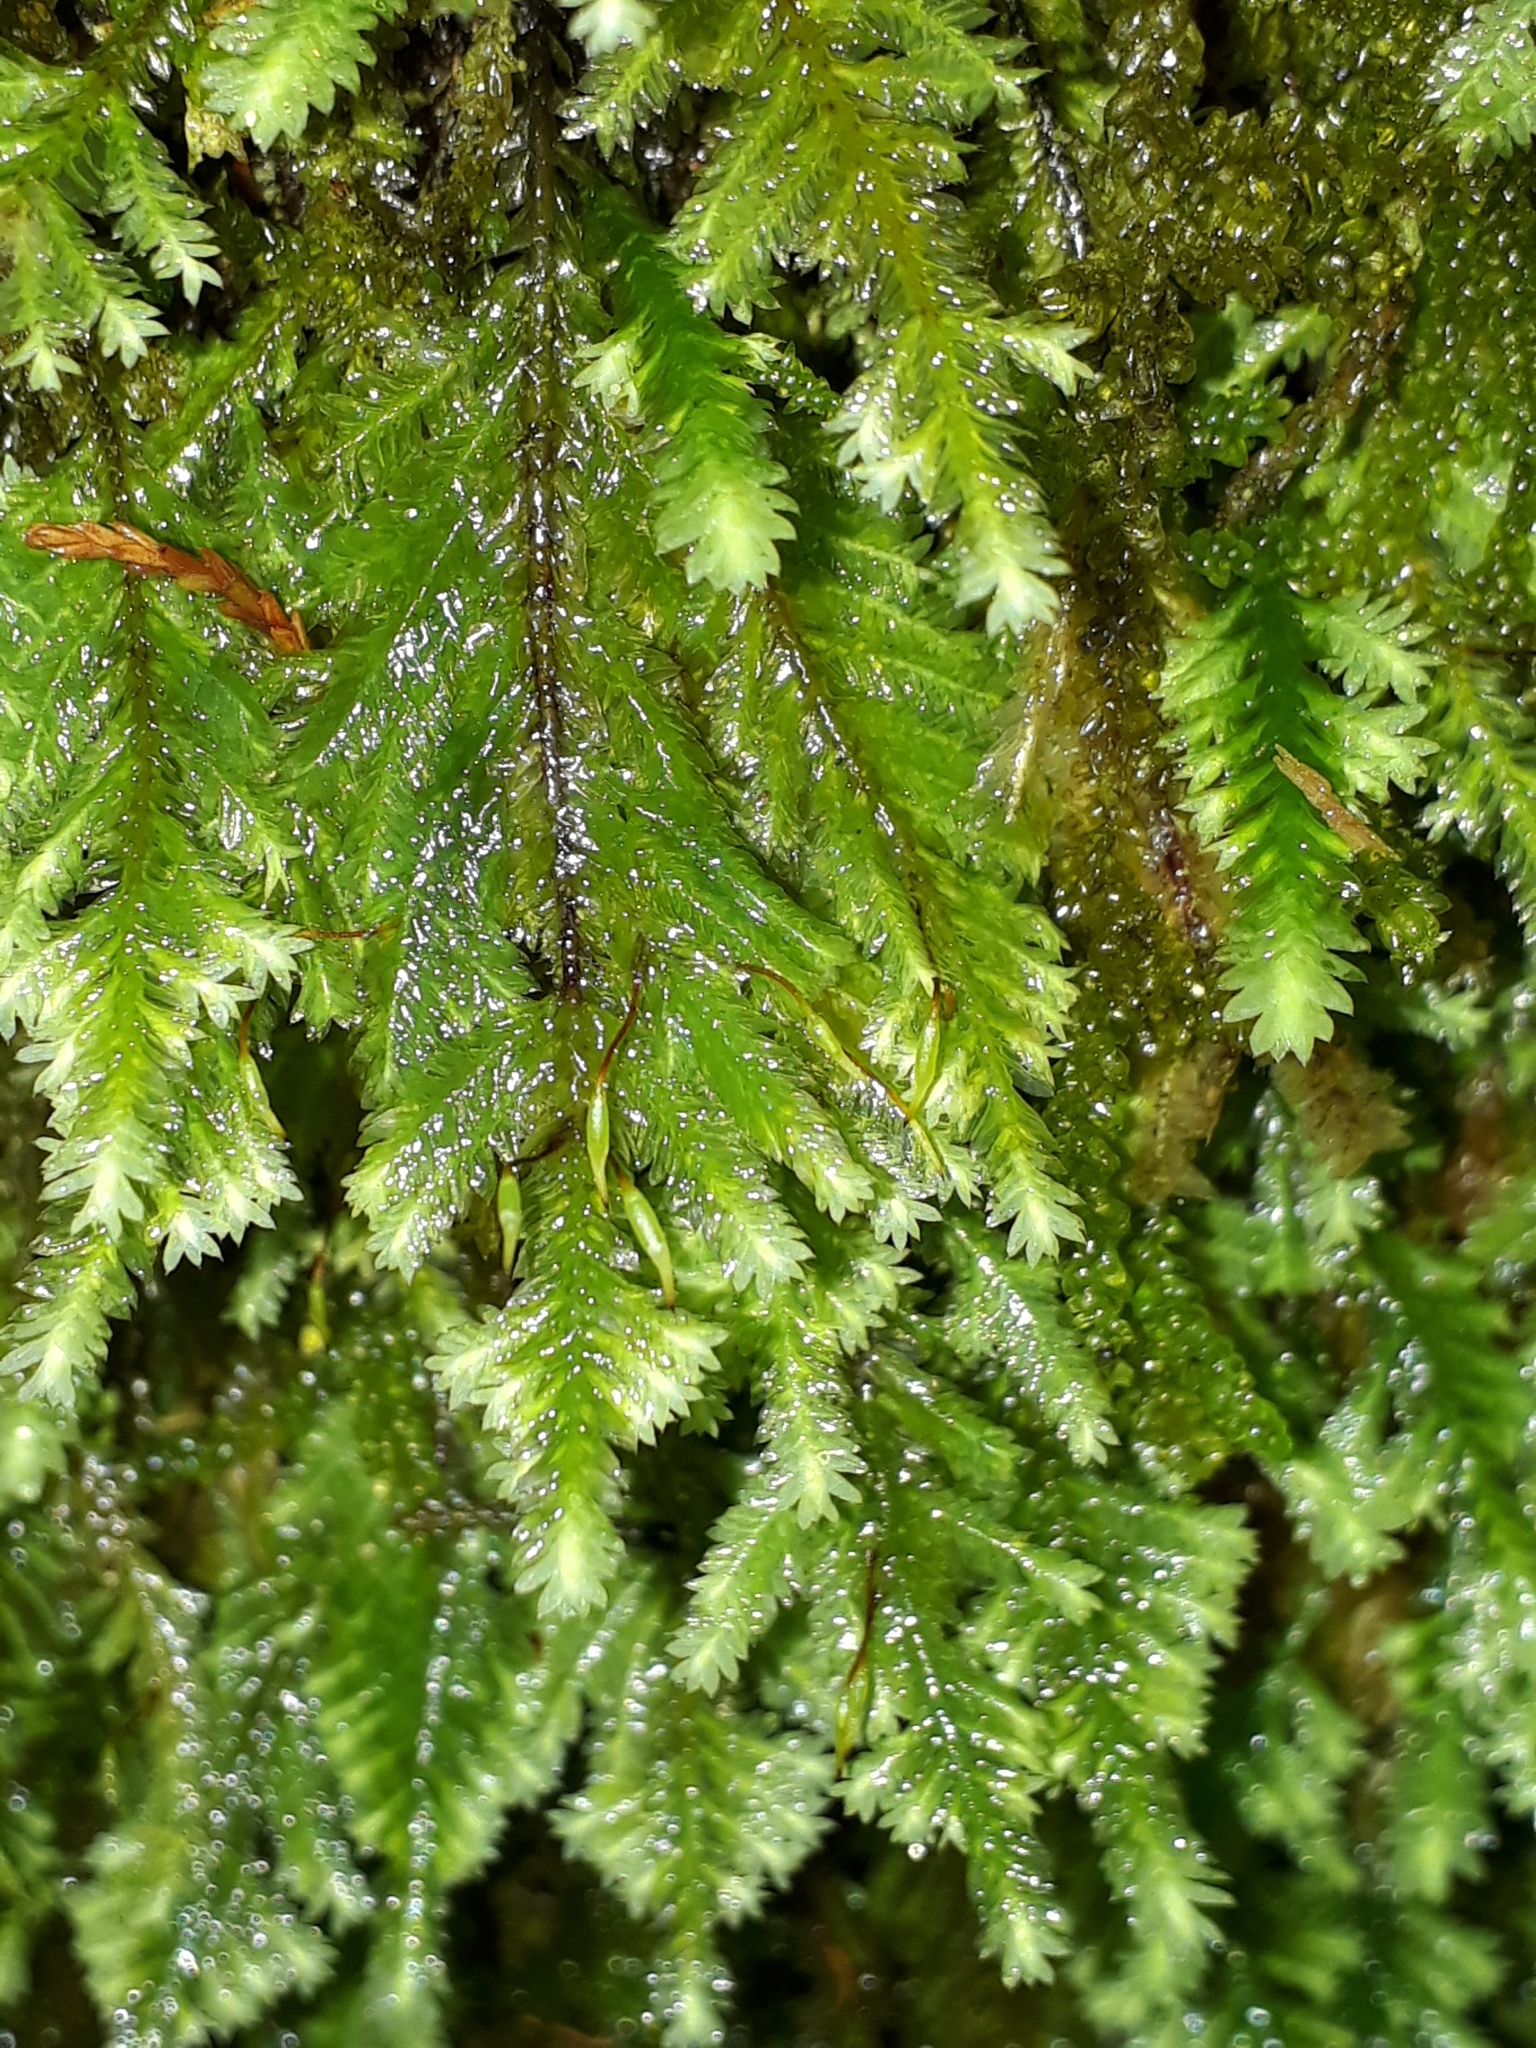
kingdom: Plantae
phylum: Bryophyta
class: Bryopsida
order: Hypopterygiales
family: Hypopterygiaceae
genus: Lopidium
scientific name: Lopidium concinnum
